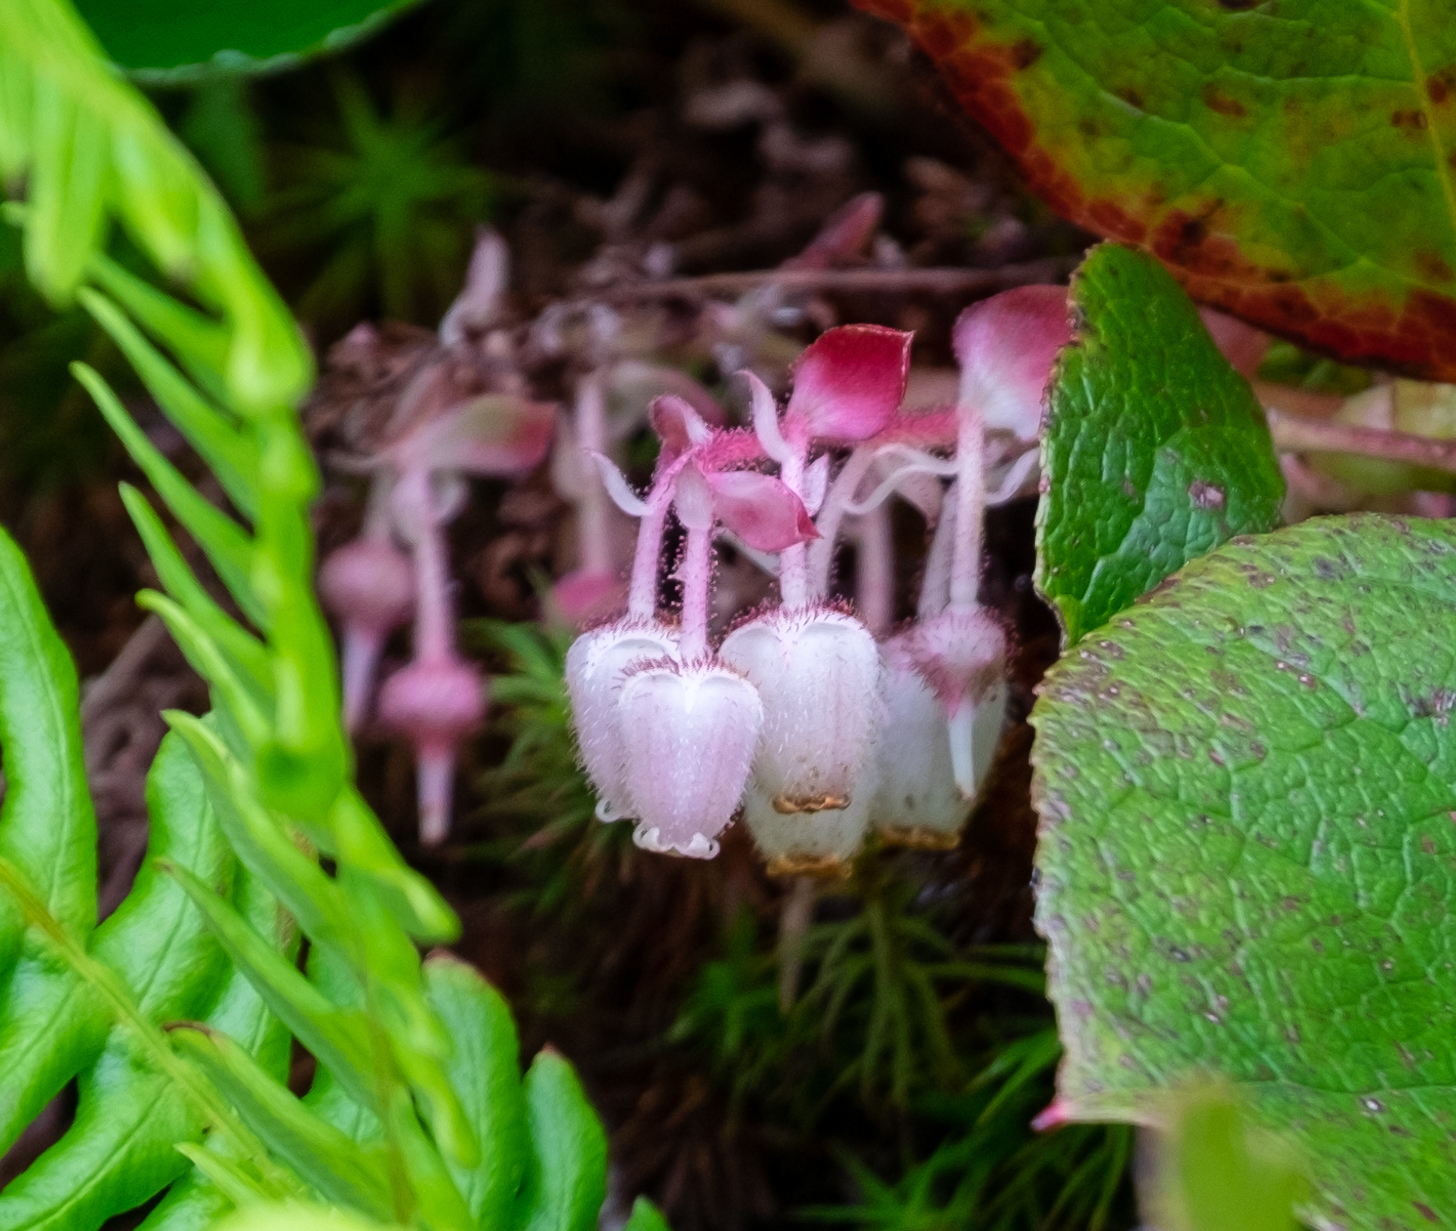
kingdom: Plantae
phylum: Tracheophyta
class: Magnoliopsida
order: Ericales
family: Ericaceae
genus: Gaultheria
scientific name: Gaultheria shallon
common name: Shallon
